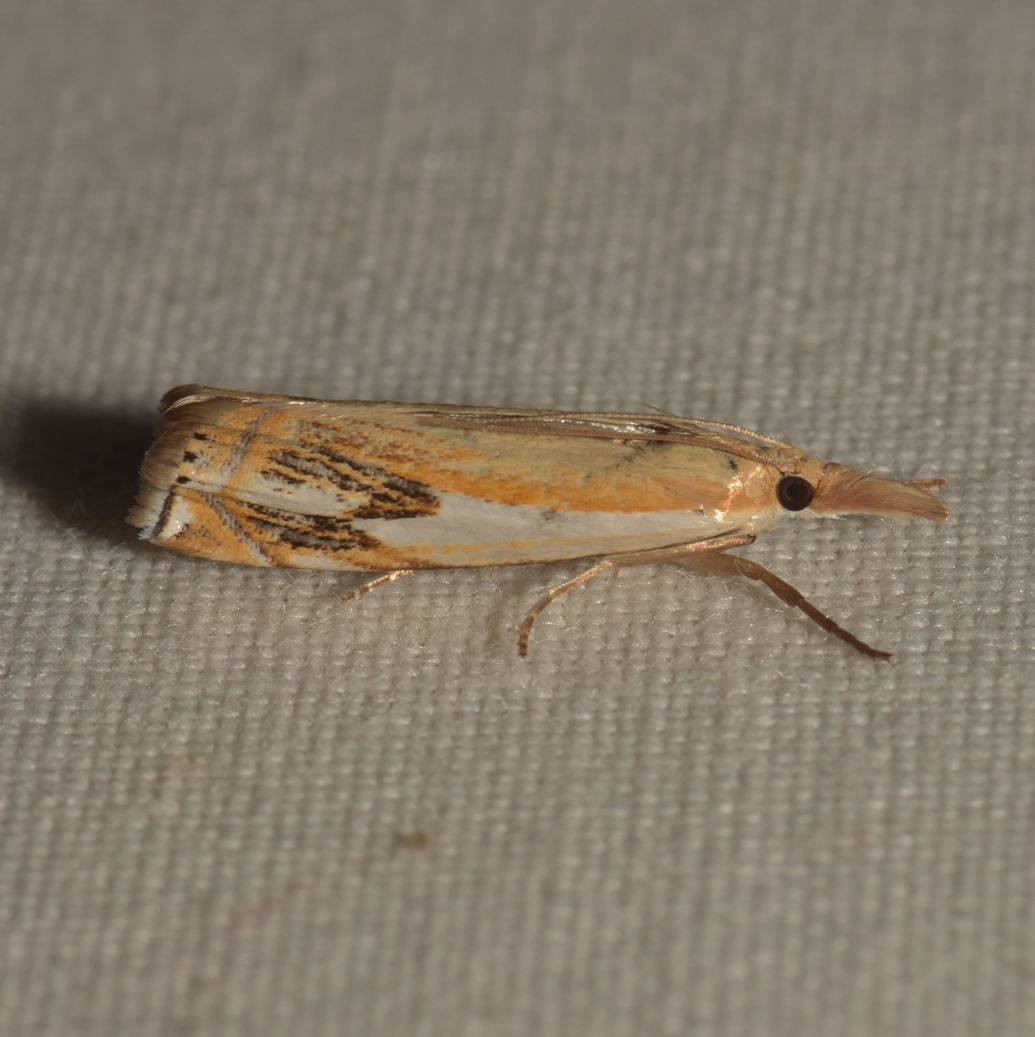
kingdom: Animalia
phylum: Arthropoda
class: Insecta
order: Lepidoptera
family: Crambidae
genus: Crambus
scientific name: Crambus agitatellus
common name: Double-banded grass-veneer
